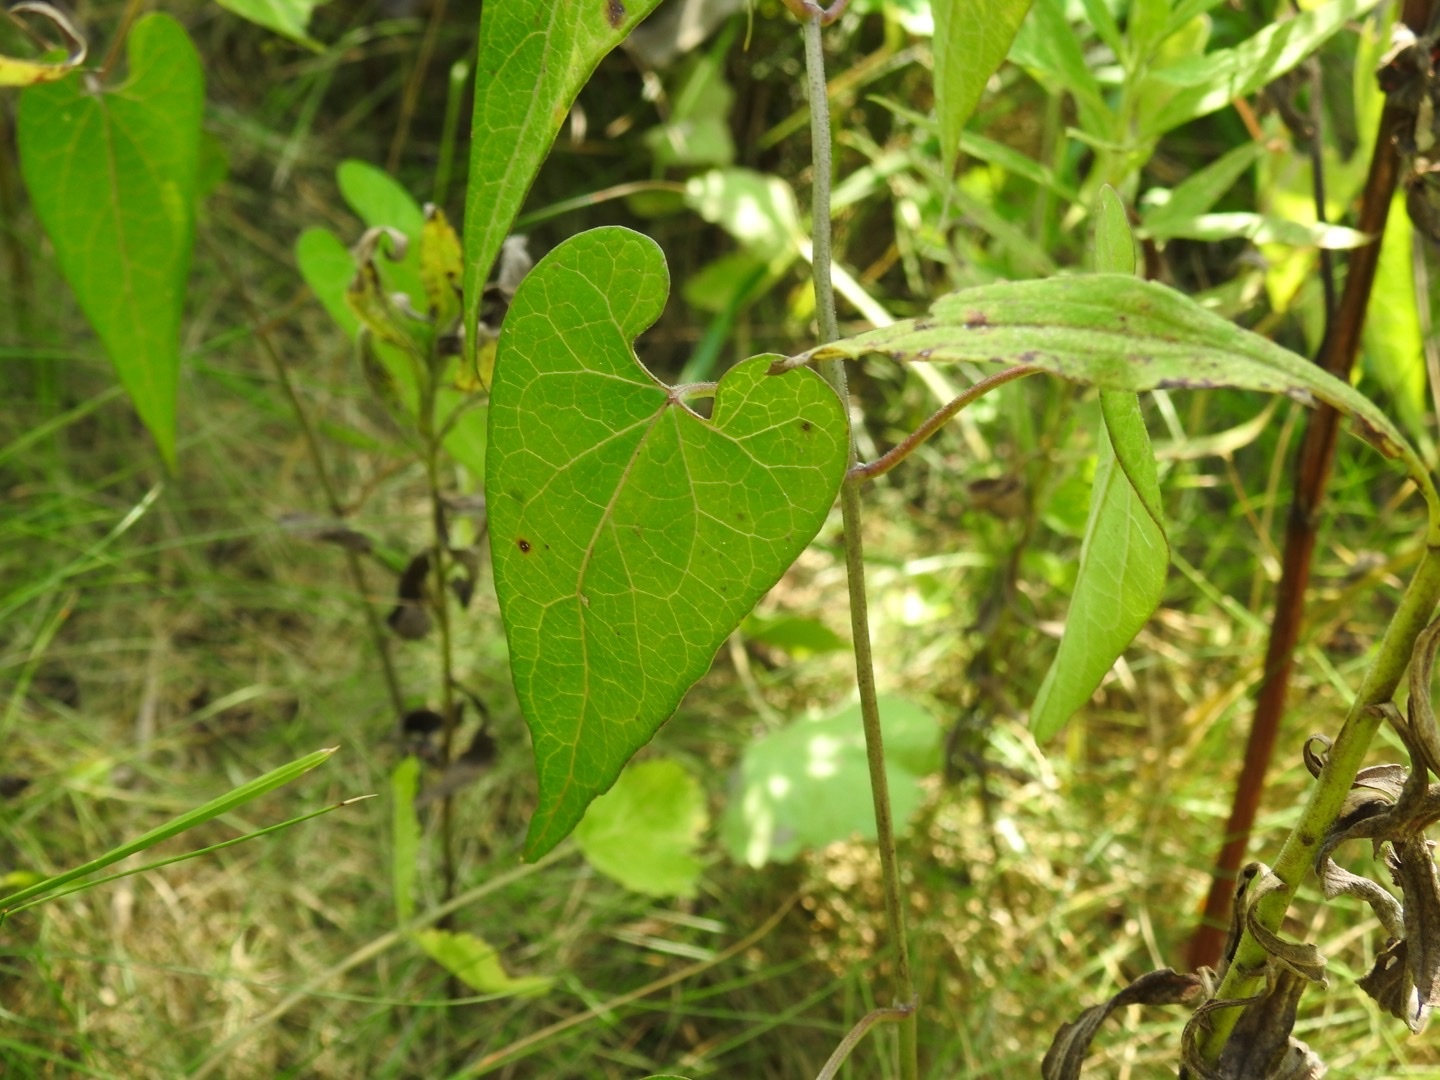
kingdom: Plantae
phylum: Tracheophyta
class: Magnoliopsida
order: Gentianales
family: Apocynaceae
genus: Cynanchum
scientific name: Cynanchum laeve
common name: Sandvine
